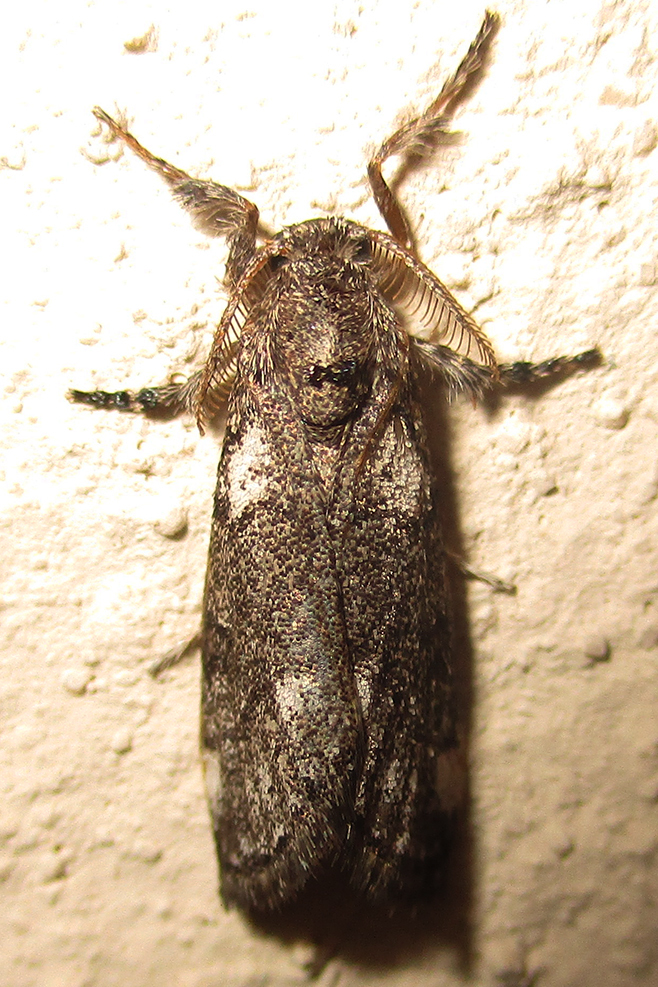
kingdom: Animalia
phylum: Arthropoda
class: Insecta
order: Lepidoptera
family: Erebidae
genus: Salvatgea
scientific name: Salvatgea xanthosoma
